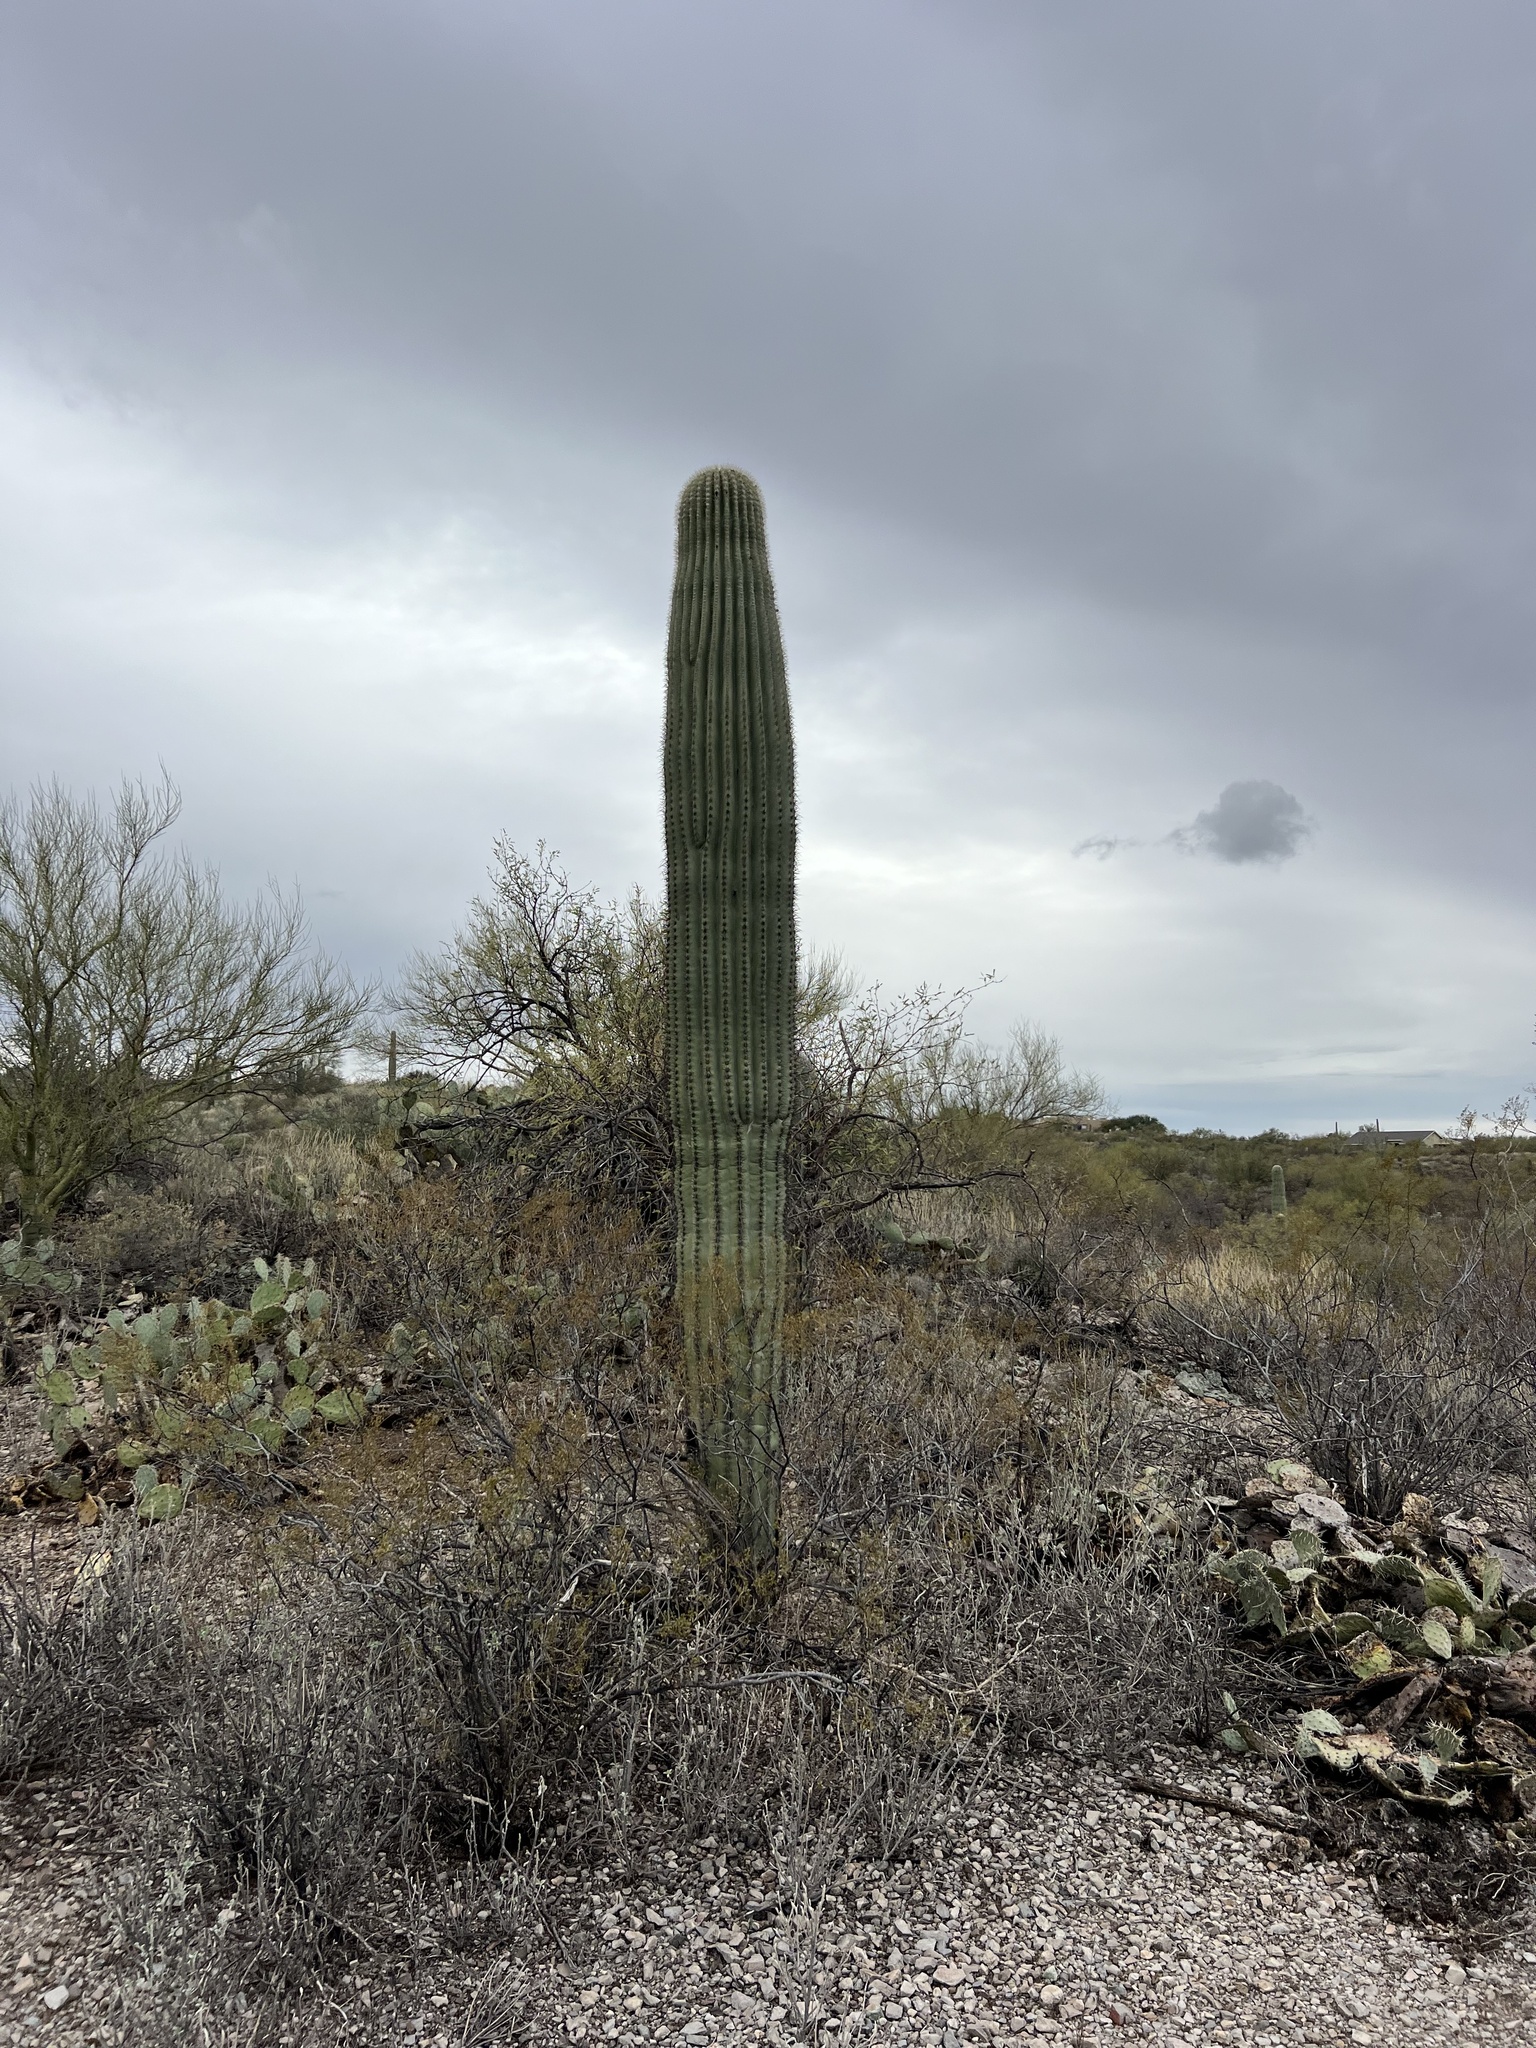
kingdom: Plantae
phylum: Tracheophyta
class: Magnoliopsida
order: Caryophyllales
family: Cactaceae
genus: Carnegiea
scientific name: Carnegiea gigantea
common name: Saguaro
